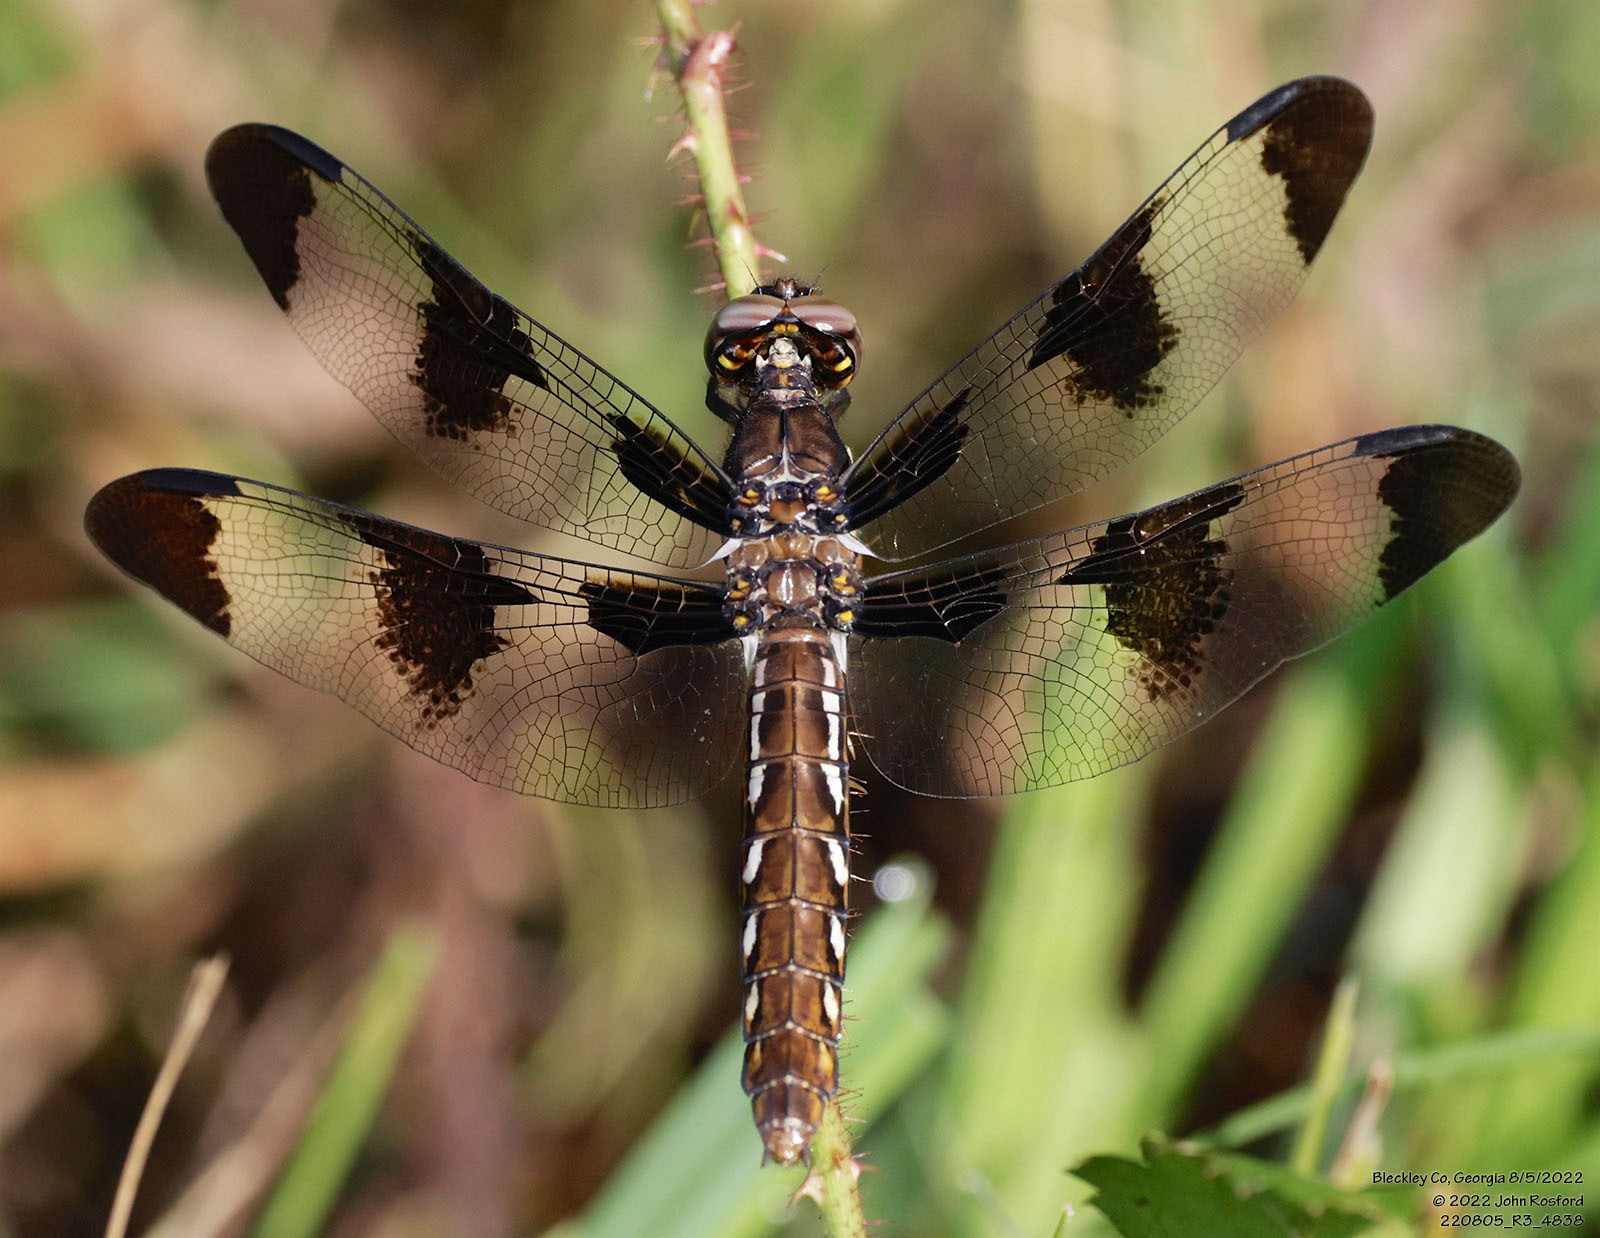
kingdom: Animalia
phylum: Arthropoda
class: Insecta
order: Odonata
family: Libellulidae
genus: Plathemis
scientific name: Plathemis lydia
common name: Common whitetail
